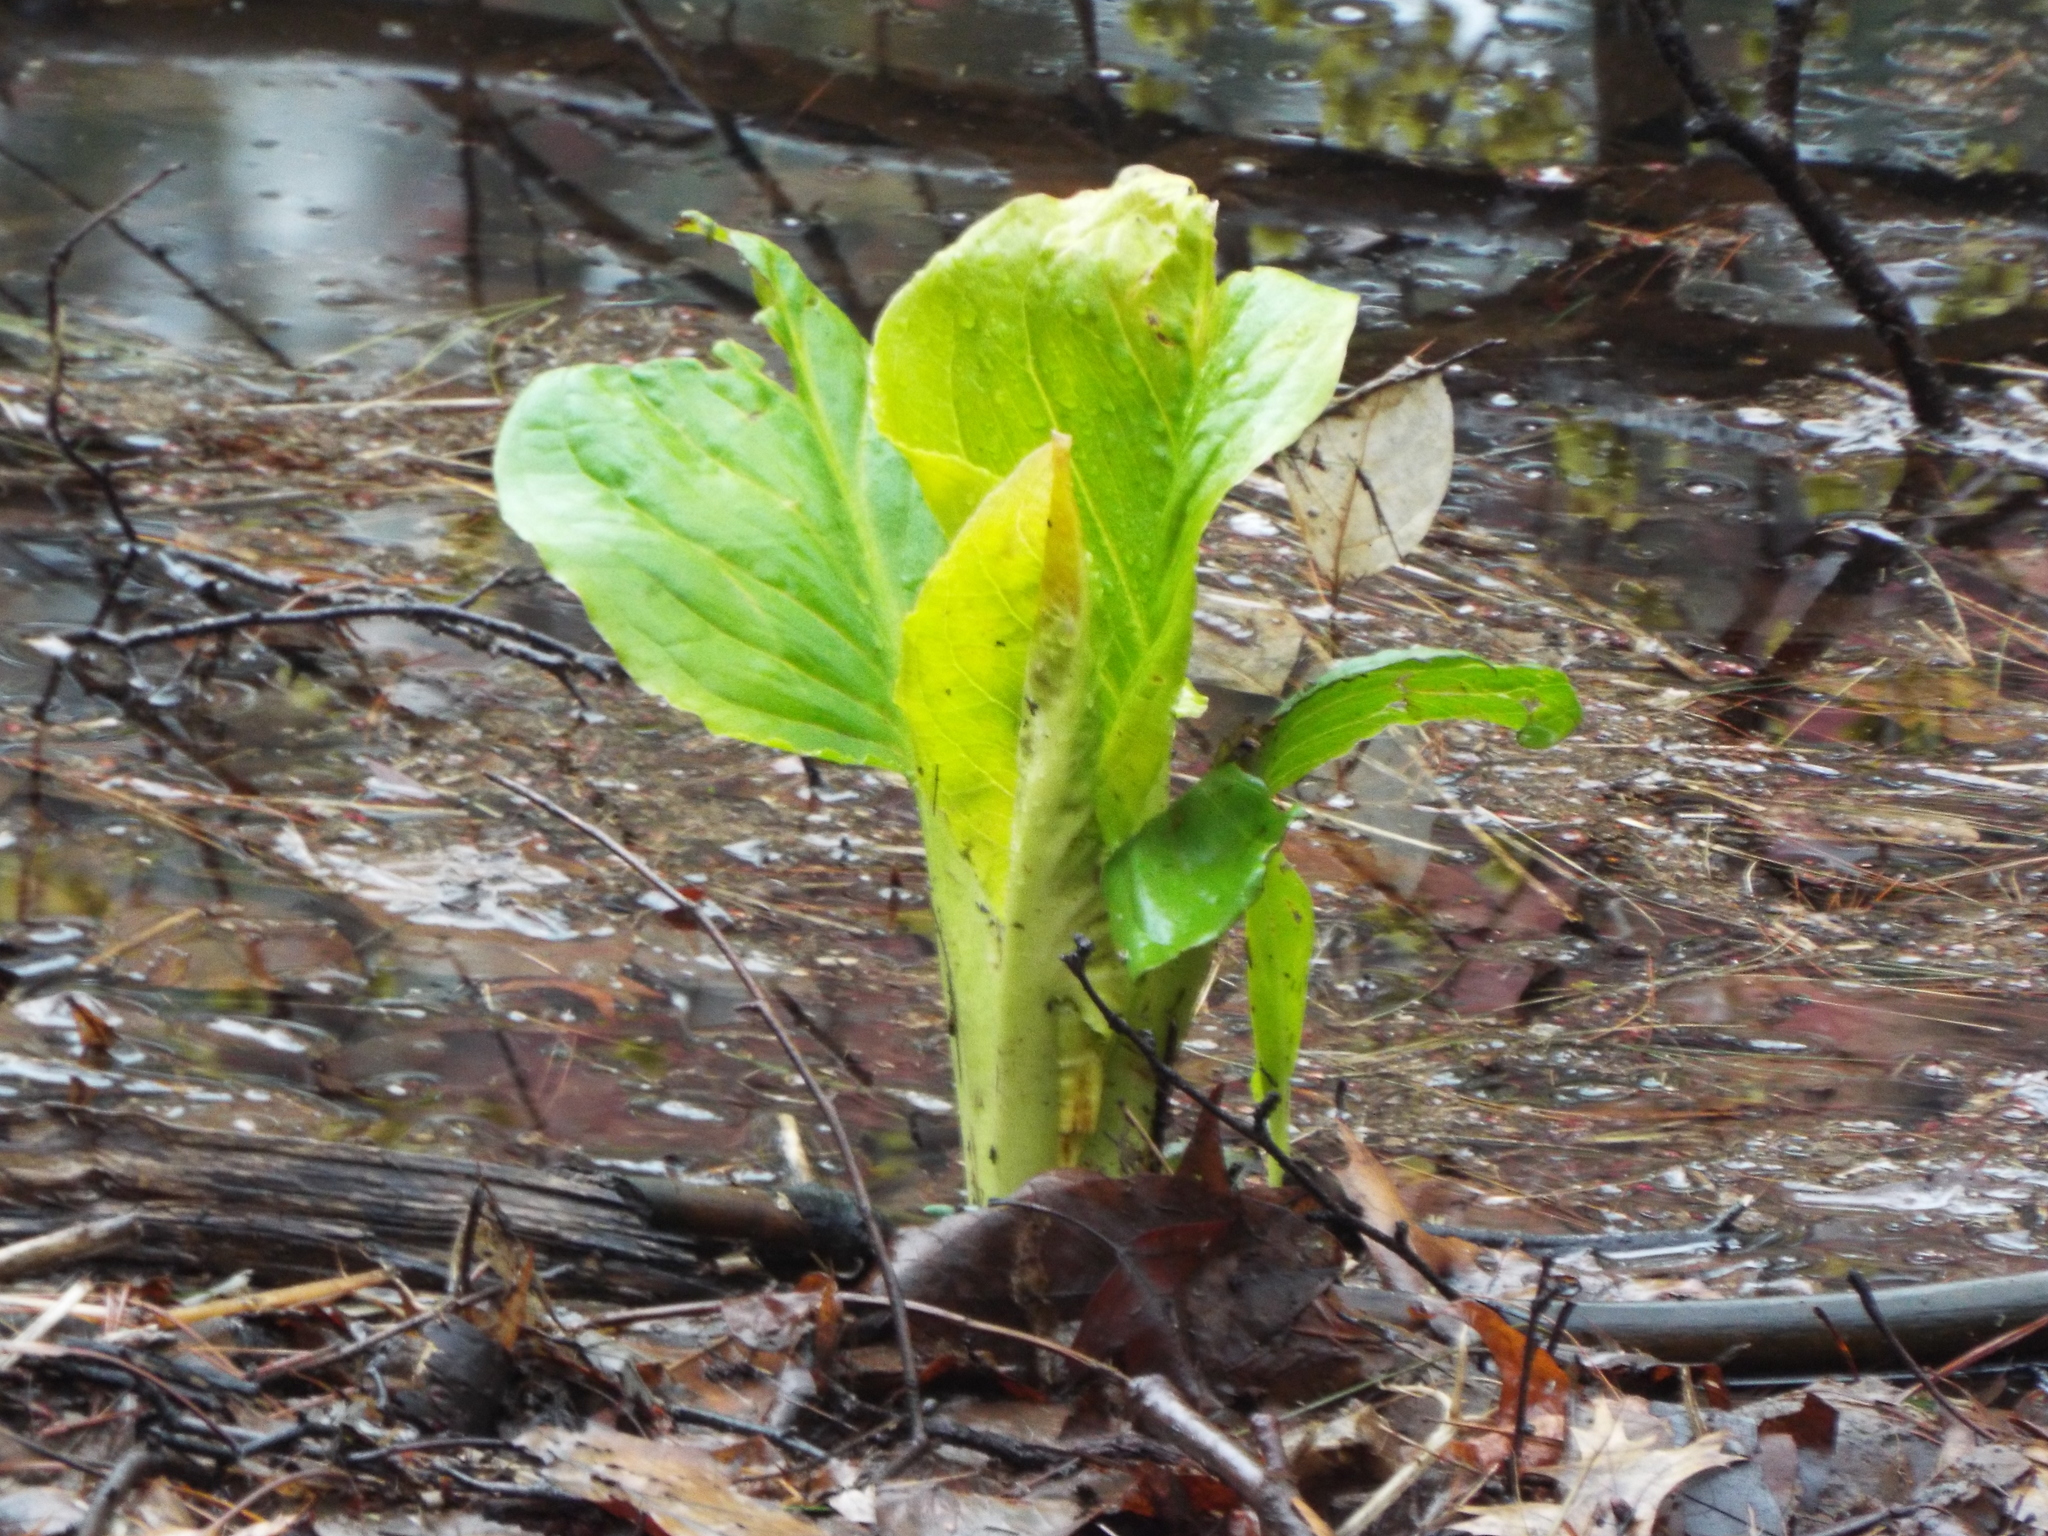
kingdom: Plantae
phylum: Tracheophyta
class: Liliopsida
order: Alismatales
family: Araceae
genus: Symplocarpus
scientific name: Symplocarpus foetidus
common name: Eastern skunk cabbage
